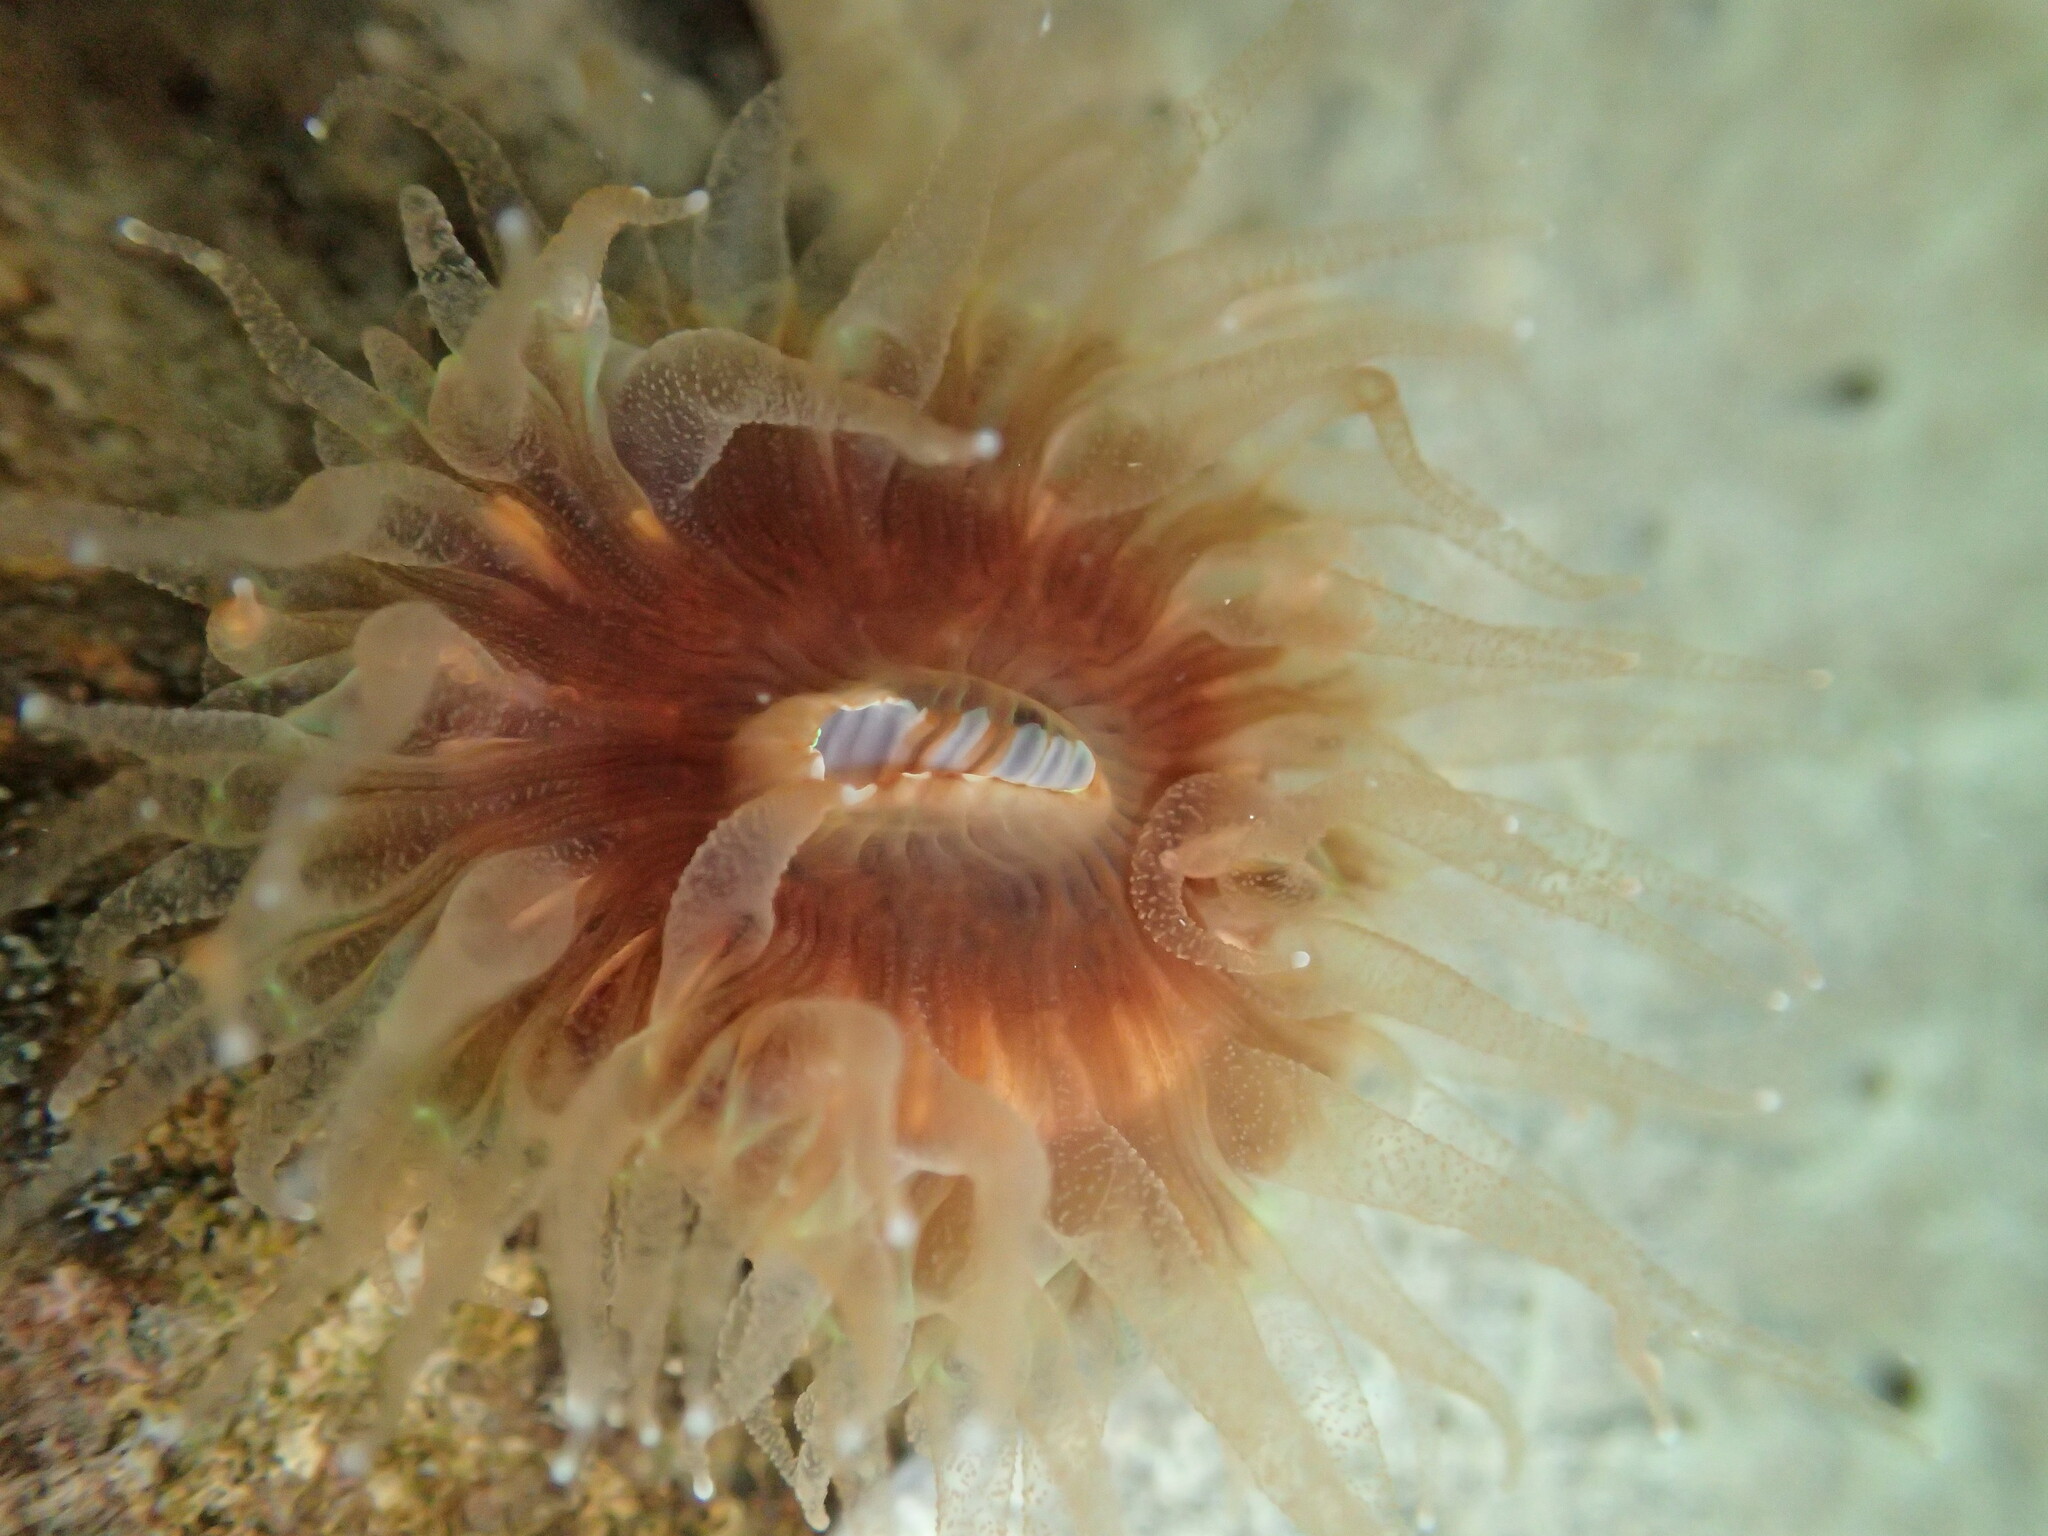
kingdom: Animalia
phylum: Cnidaria
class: Anthozoa
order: Scleractinia
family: Caryophylliidae
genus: Paracyathus
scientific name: Paracyathus stearnsii
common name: Brown stony coral
